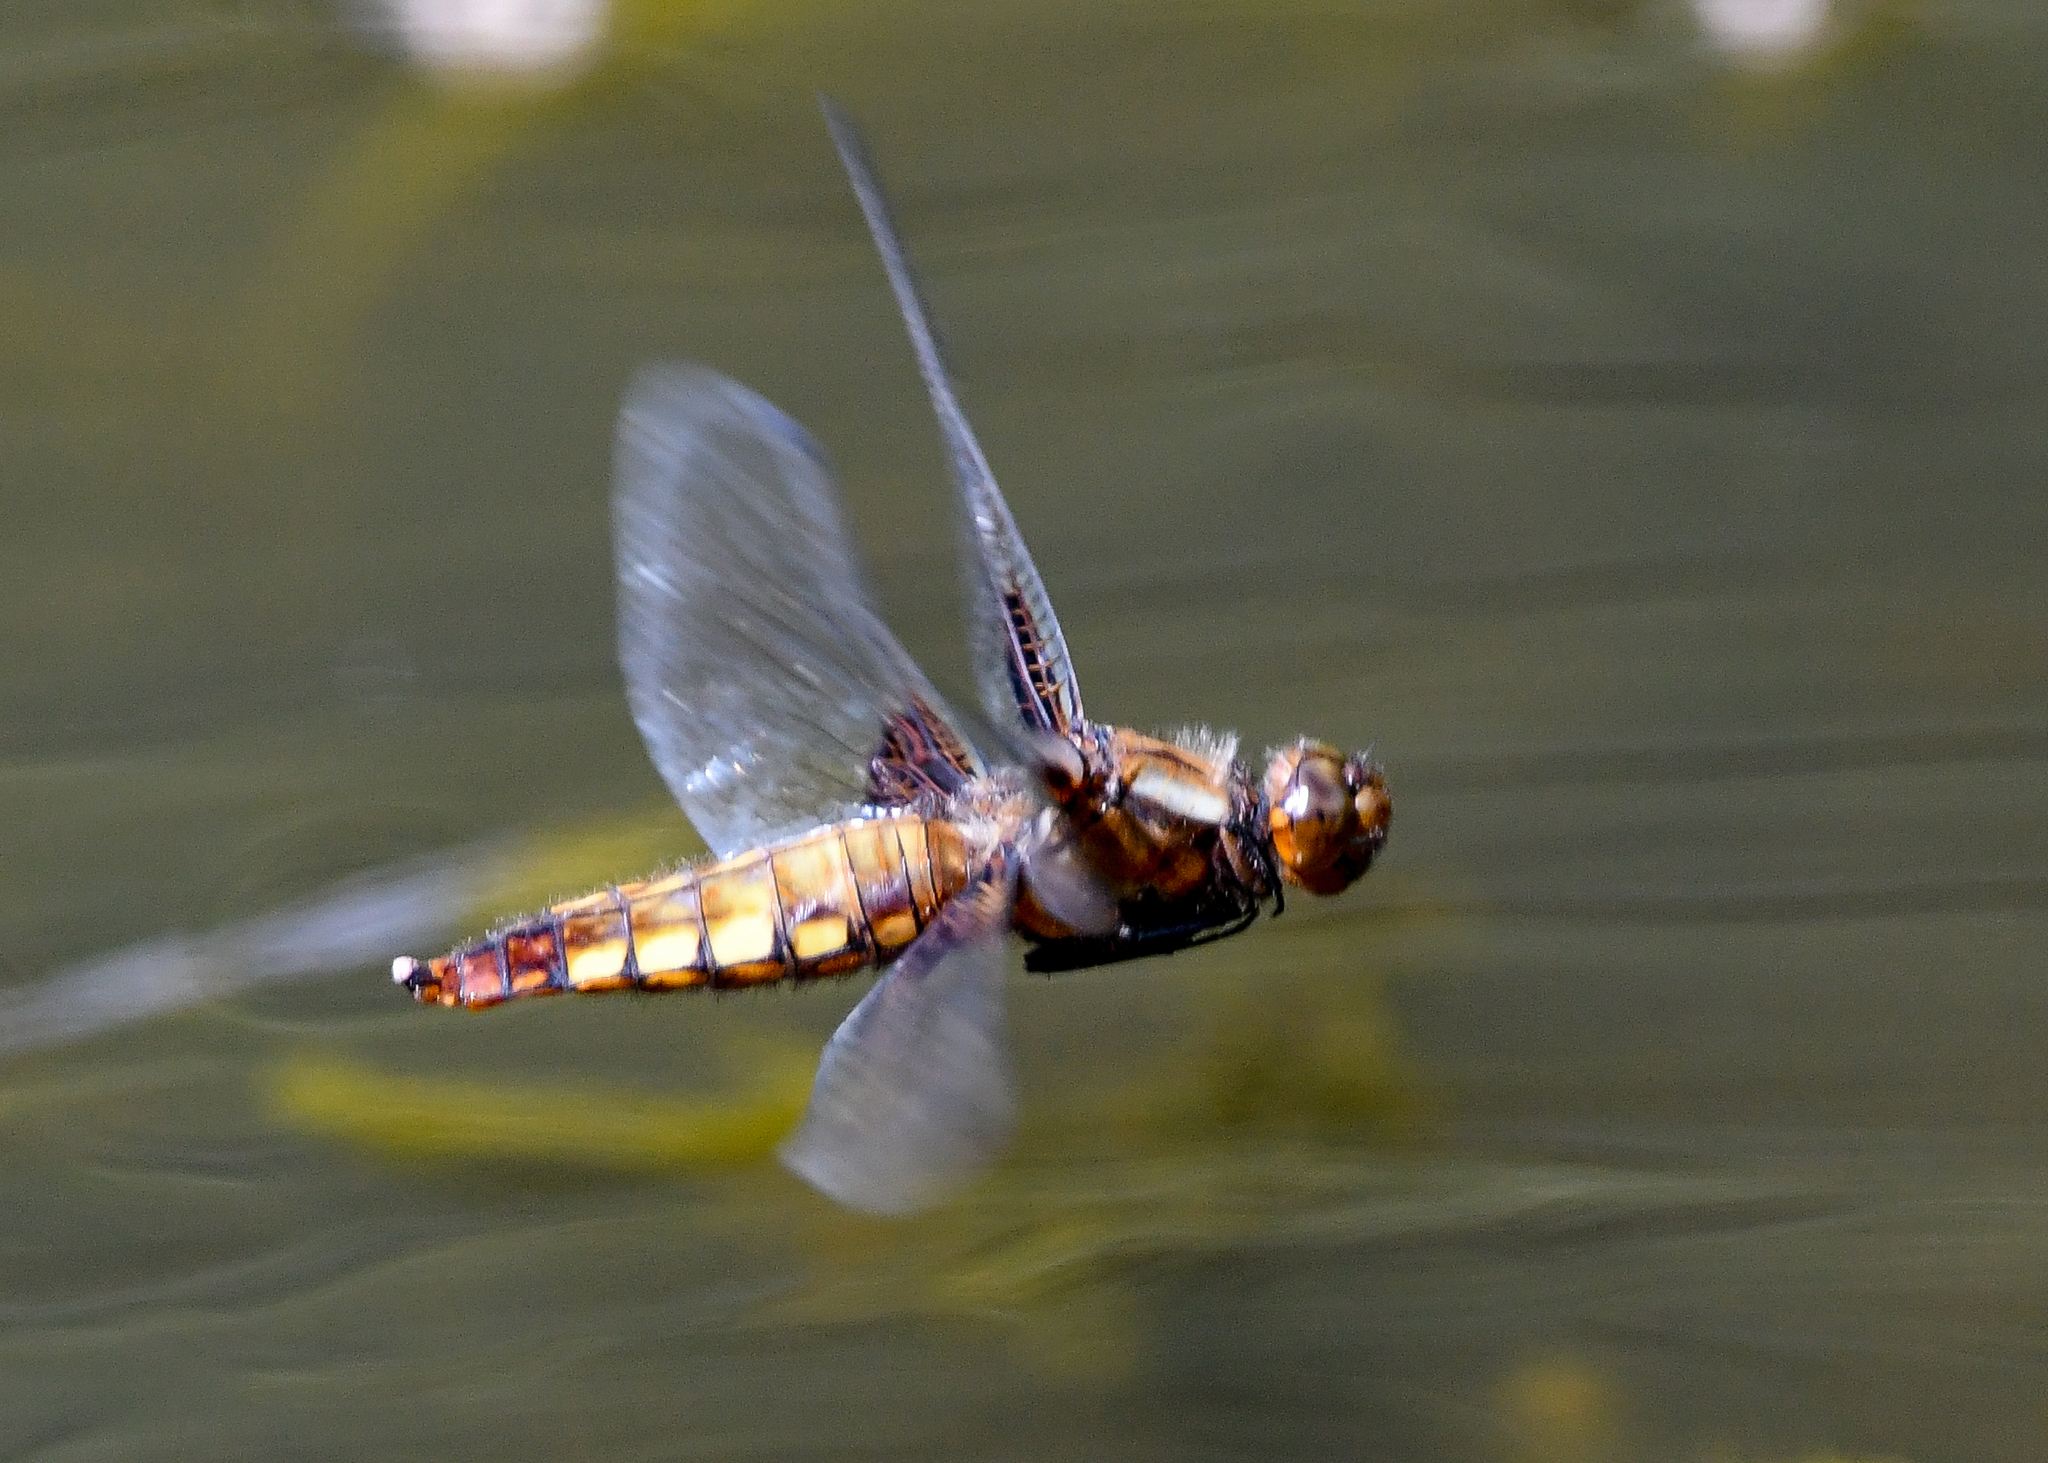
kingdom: Animalia
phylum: Arthropoda
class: Insecta
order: Odonata
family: Libellulidae
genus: Libellula
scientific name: Libellula depressa
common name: Broad-bodied chaser
